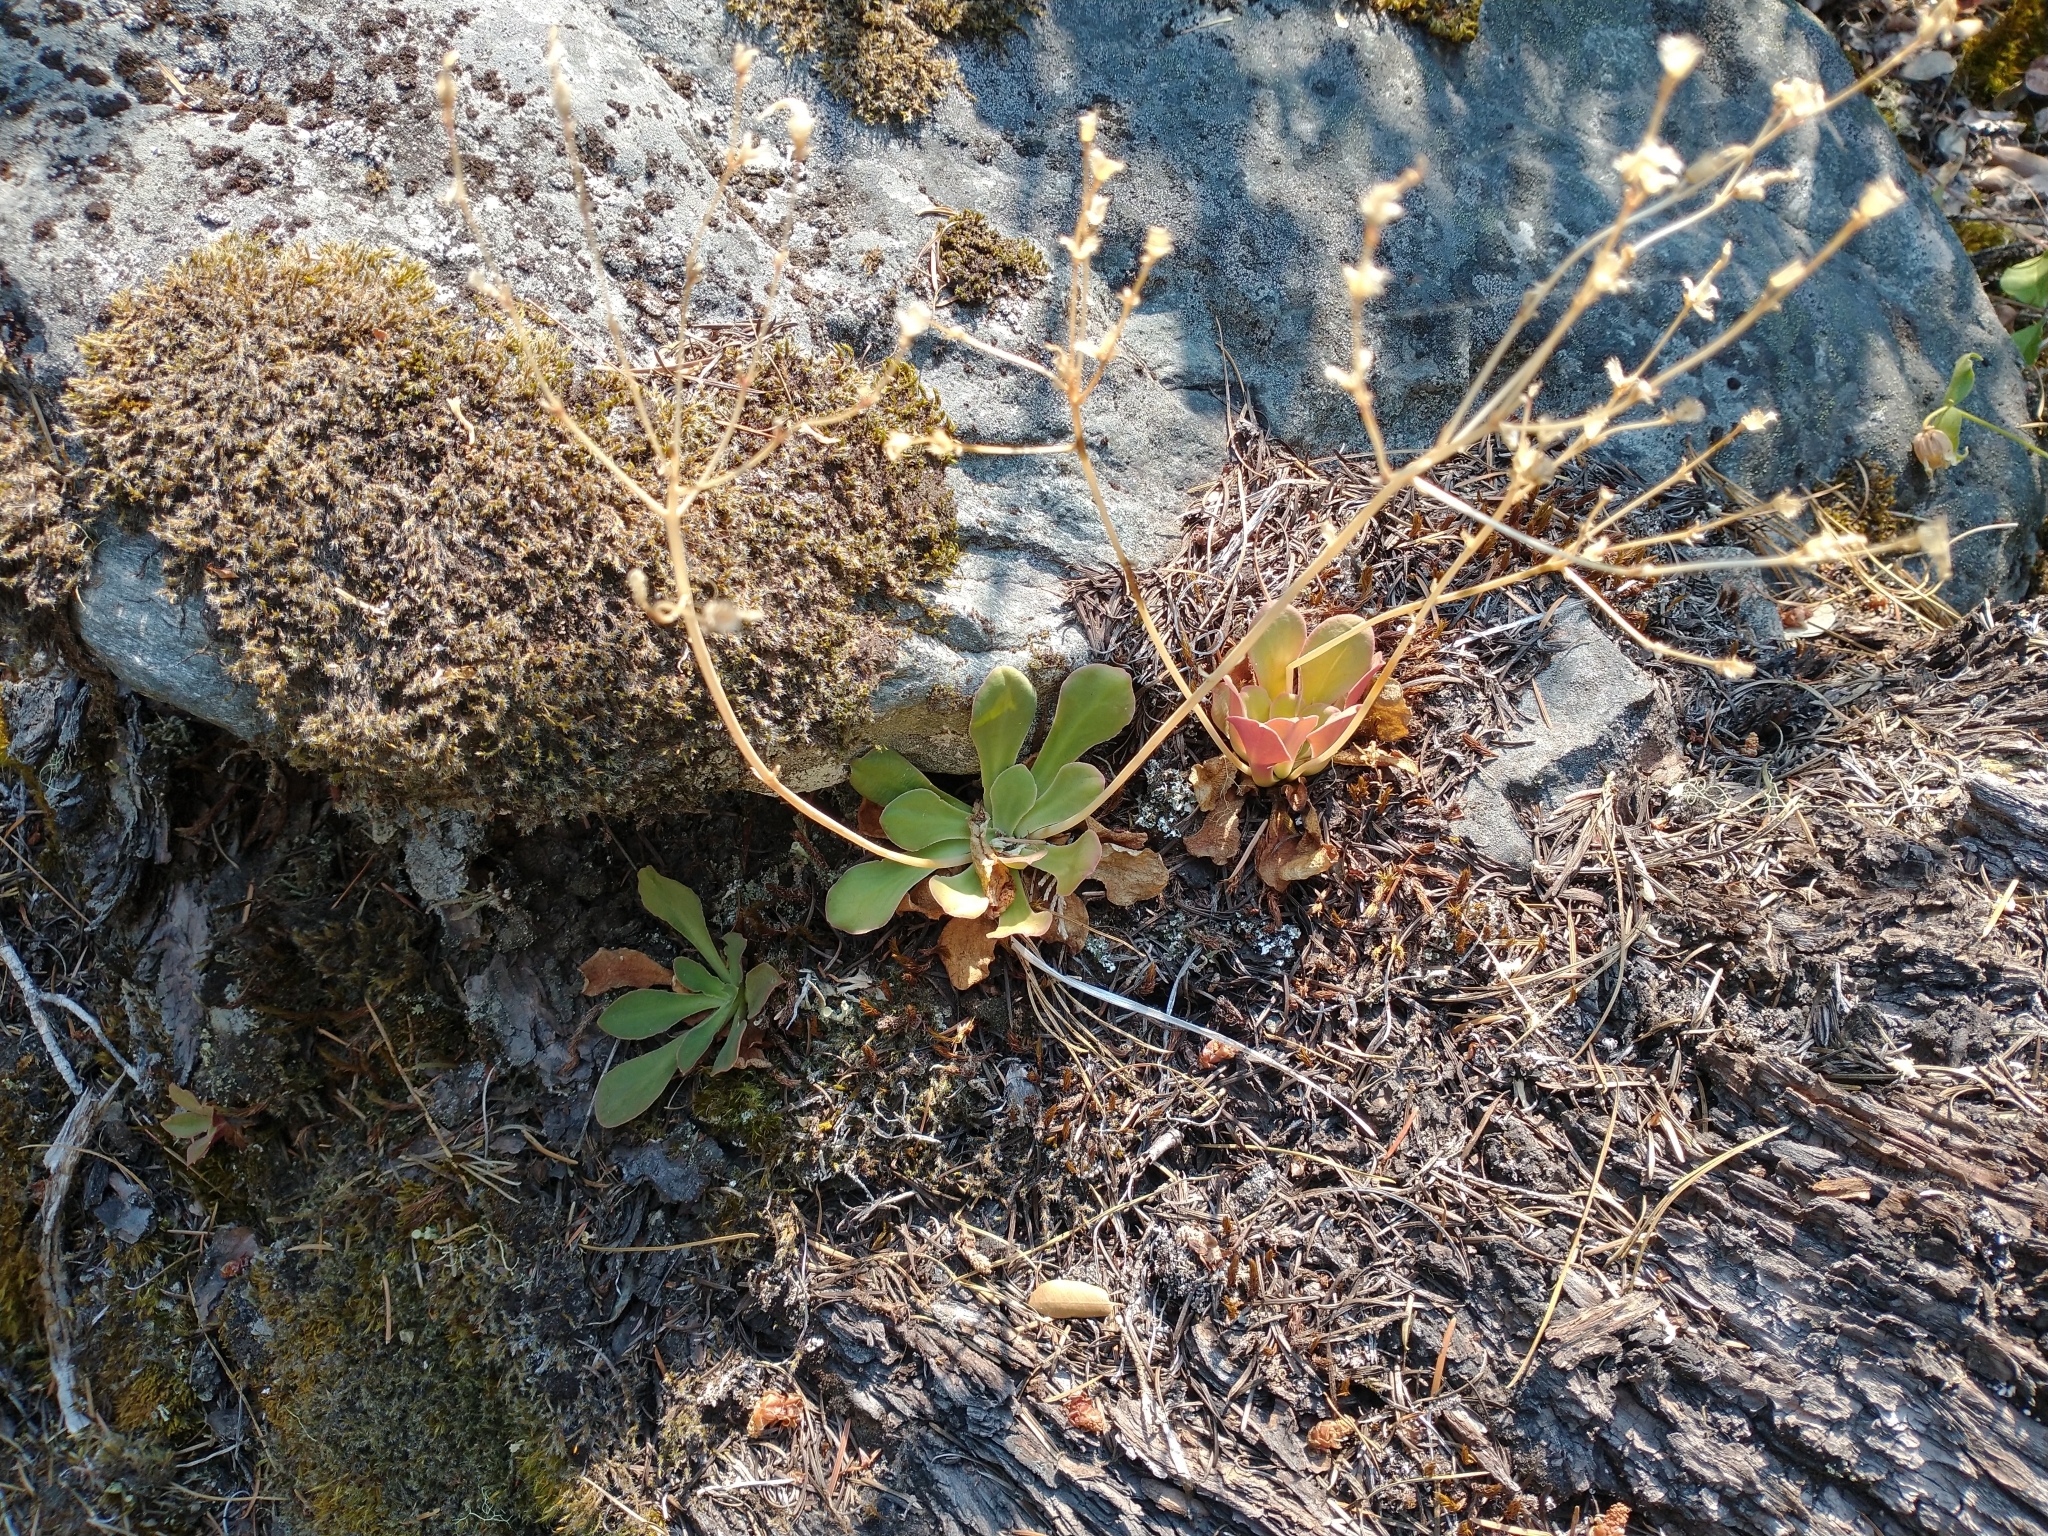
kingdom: Plantae
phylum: Tracheophyta
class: Magnoliopsida
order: Caryophyllales
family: Montiaceae
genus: Lewisia
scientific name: Lewisia cotyledon
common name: Siskiyou lewisia
